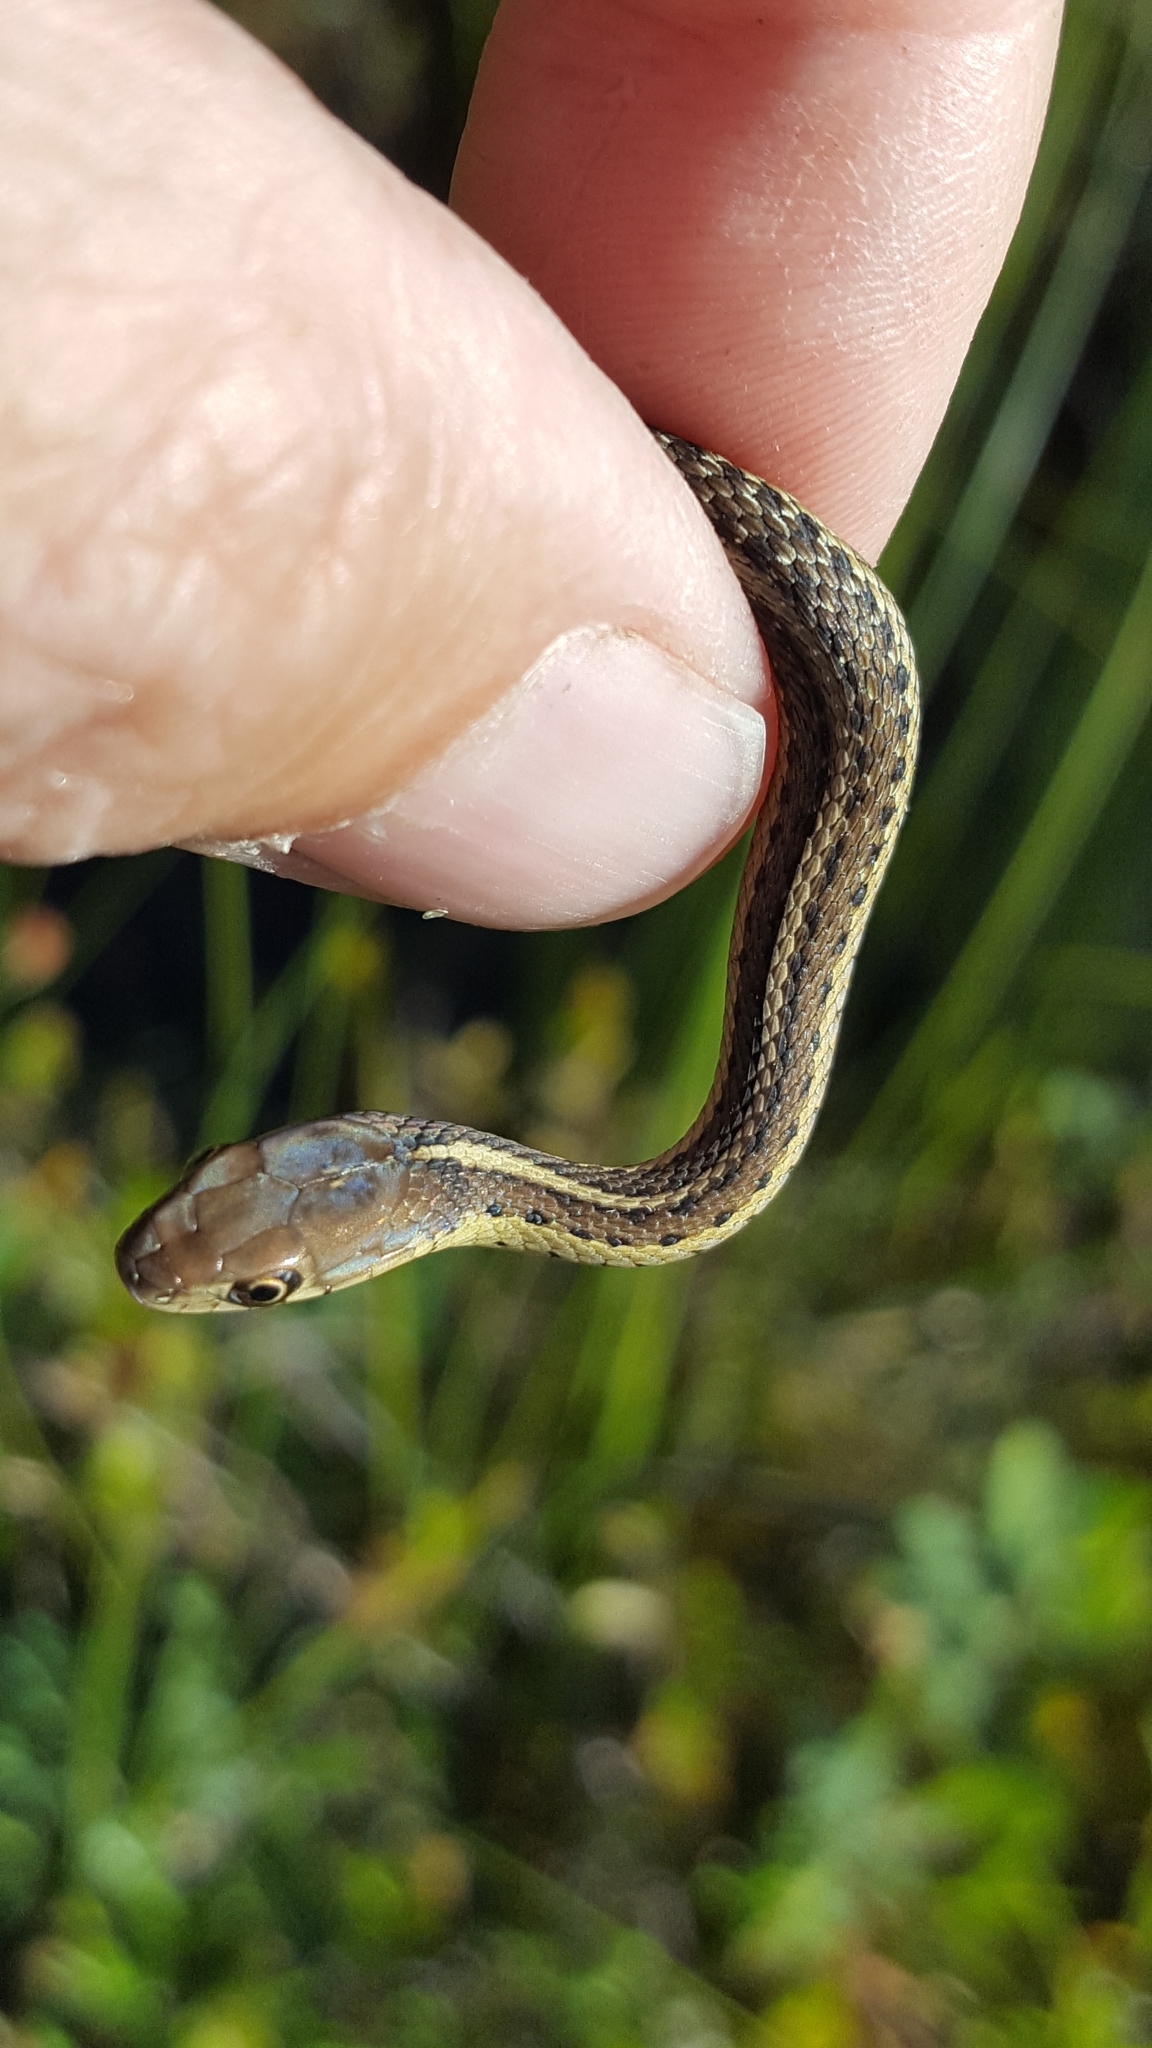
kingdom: Animalia
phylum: Chordata
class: Squamata
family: Colubridae
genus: Thamnophis
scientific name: Thamnophis sirtalis
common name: Common garter snake
